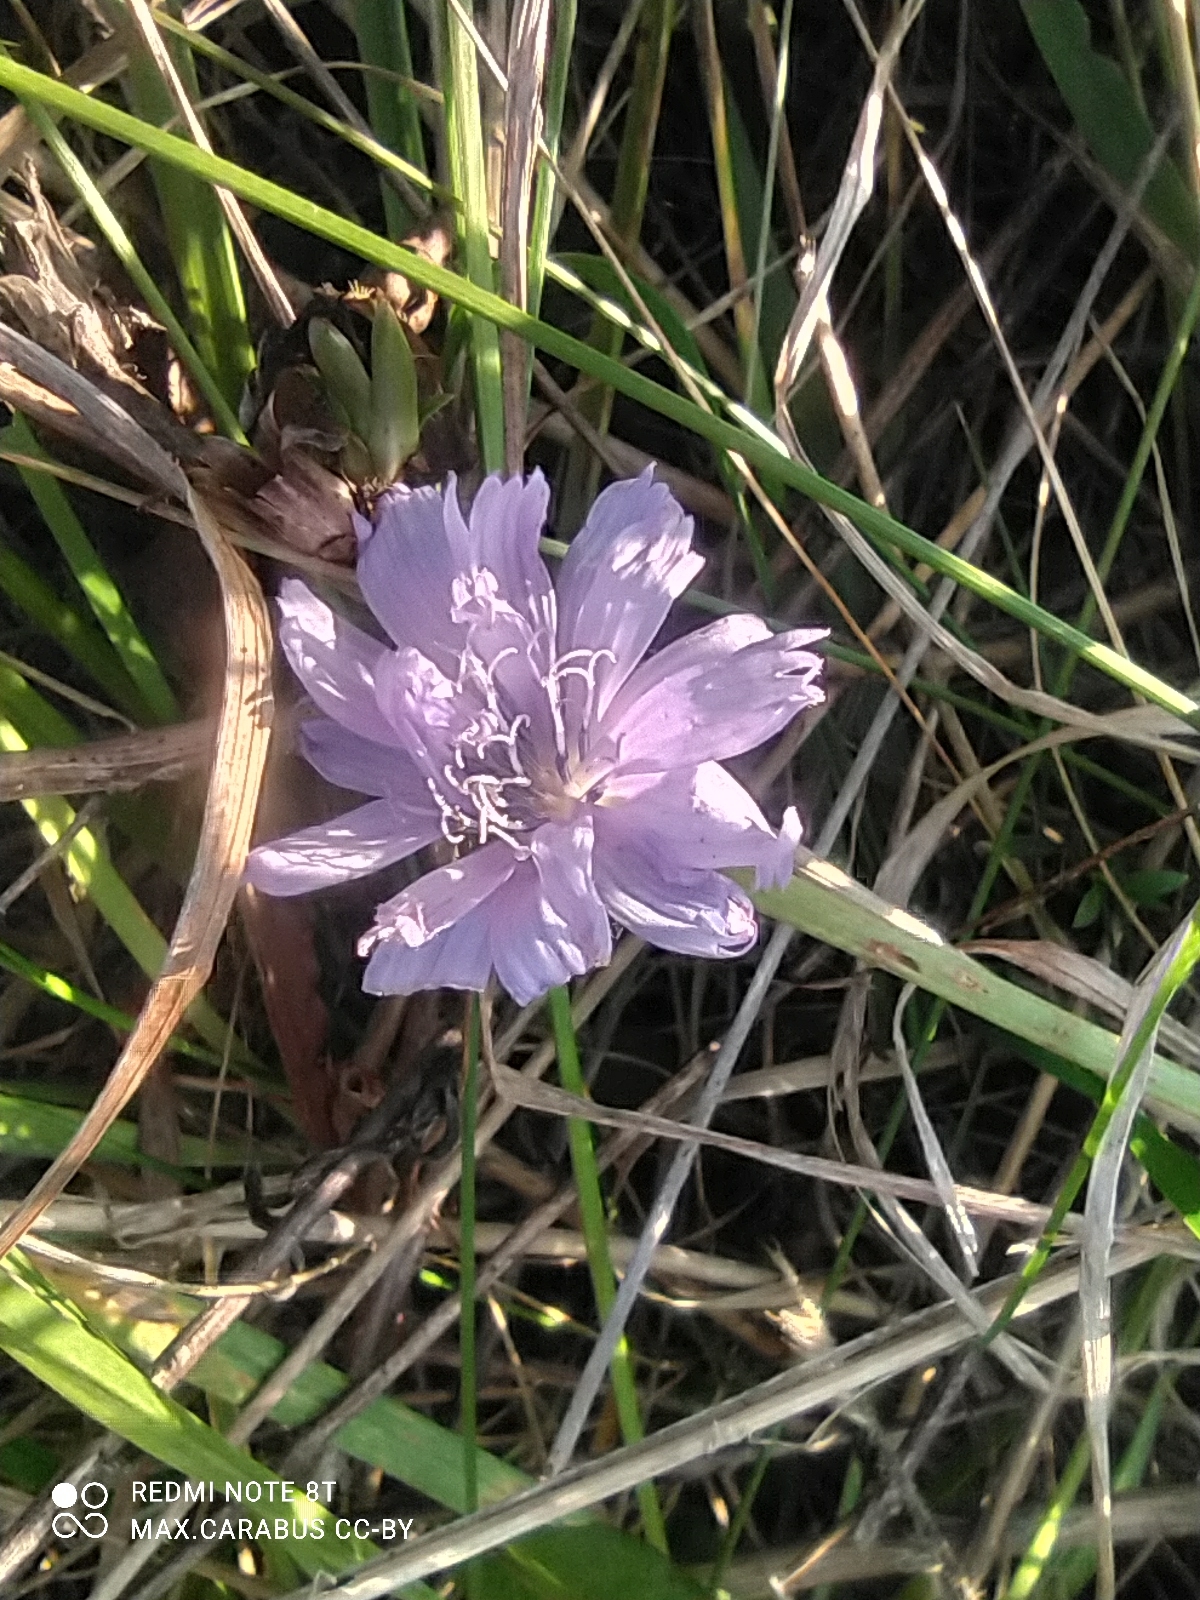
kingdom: Plantae
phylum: Tracheophyta
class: Magnoliopsida
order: Asterales
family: Asteraceae
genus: Cichorium
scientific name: Cichorium intybus
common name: Chicory
